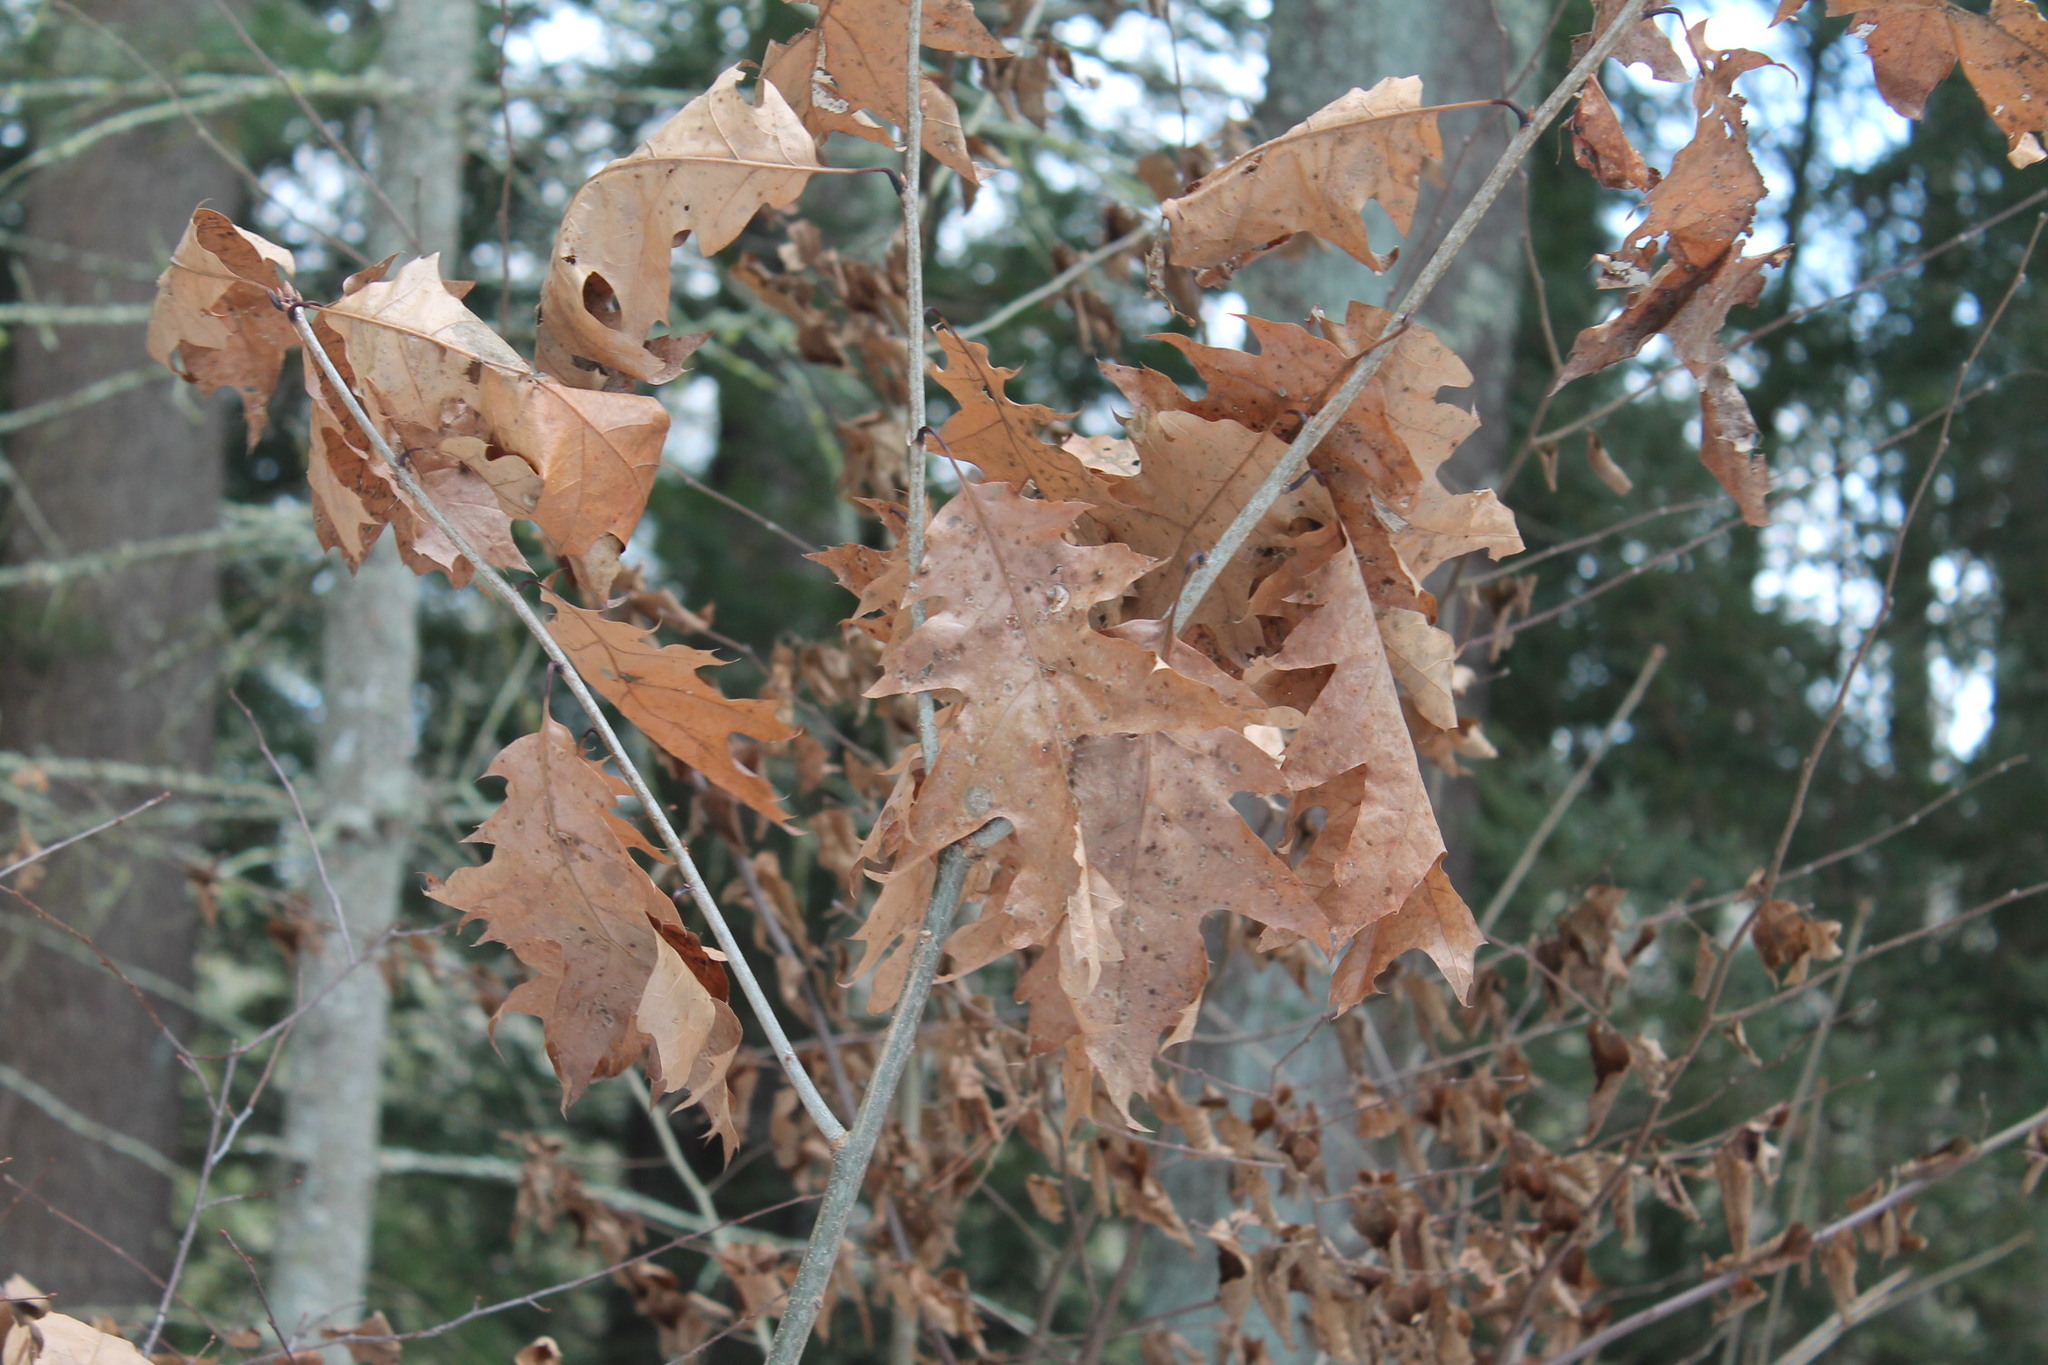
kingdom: Plantae
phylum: Tracheophyta
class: Magnoliopsida
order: Fagales
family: Fagaceae
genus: Quercus
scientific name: Quercus rubra
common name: Red oak
